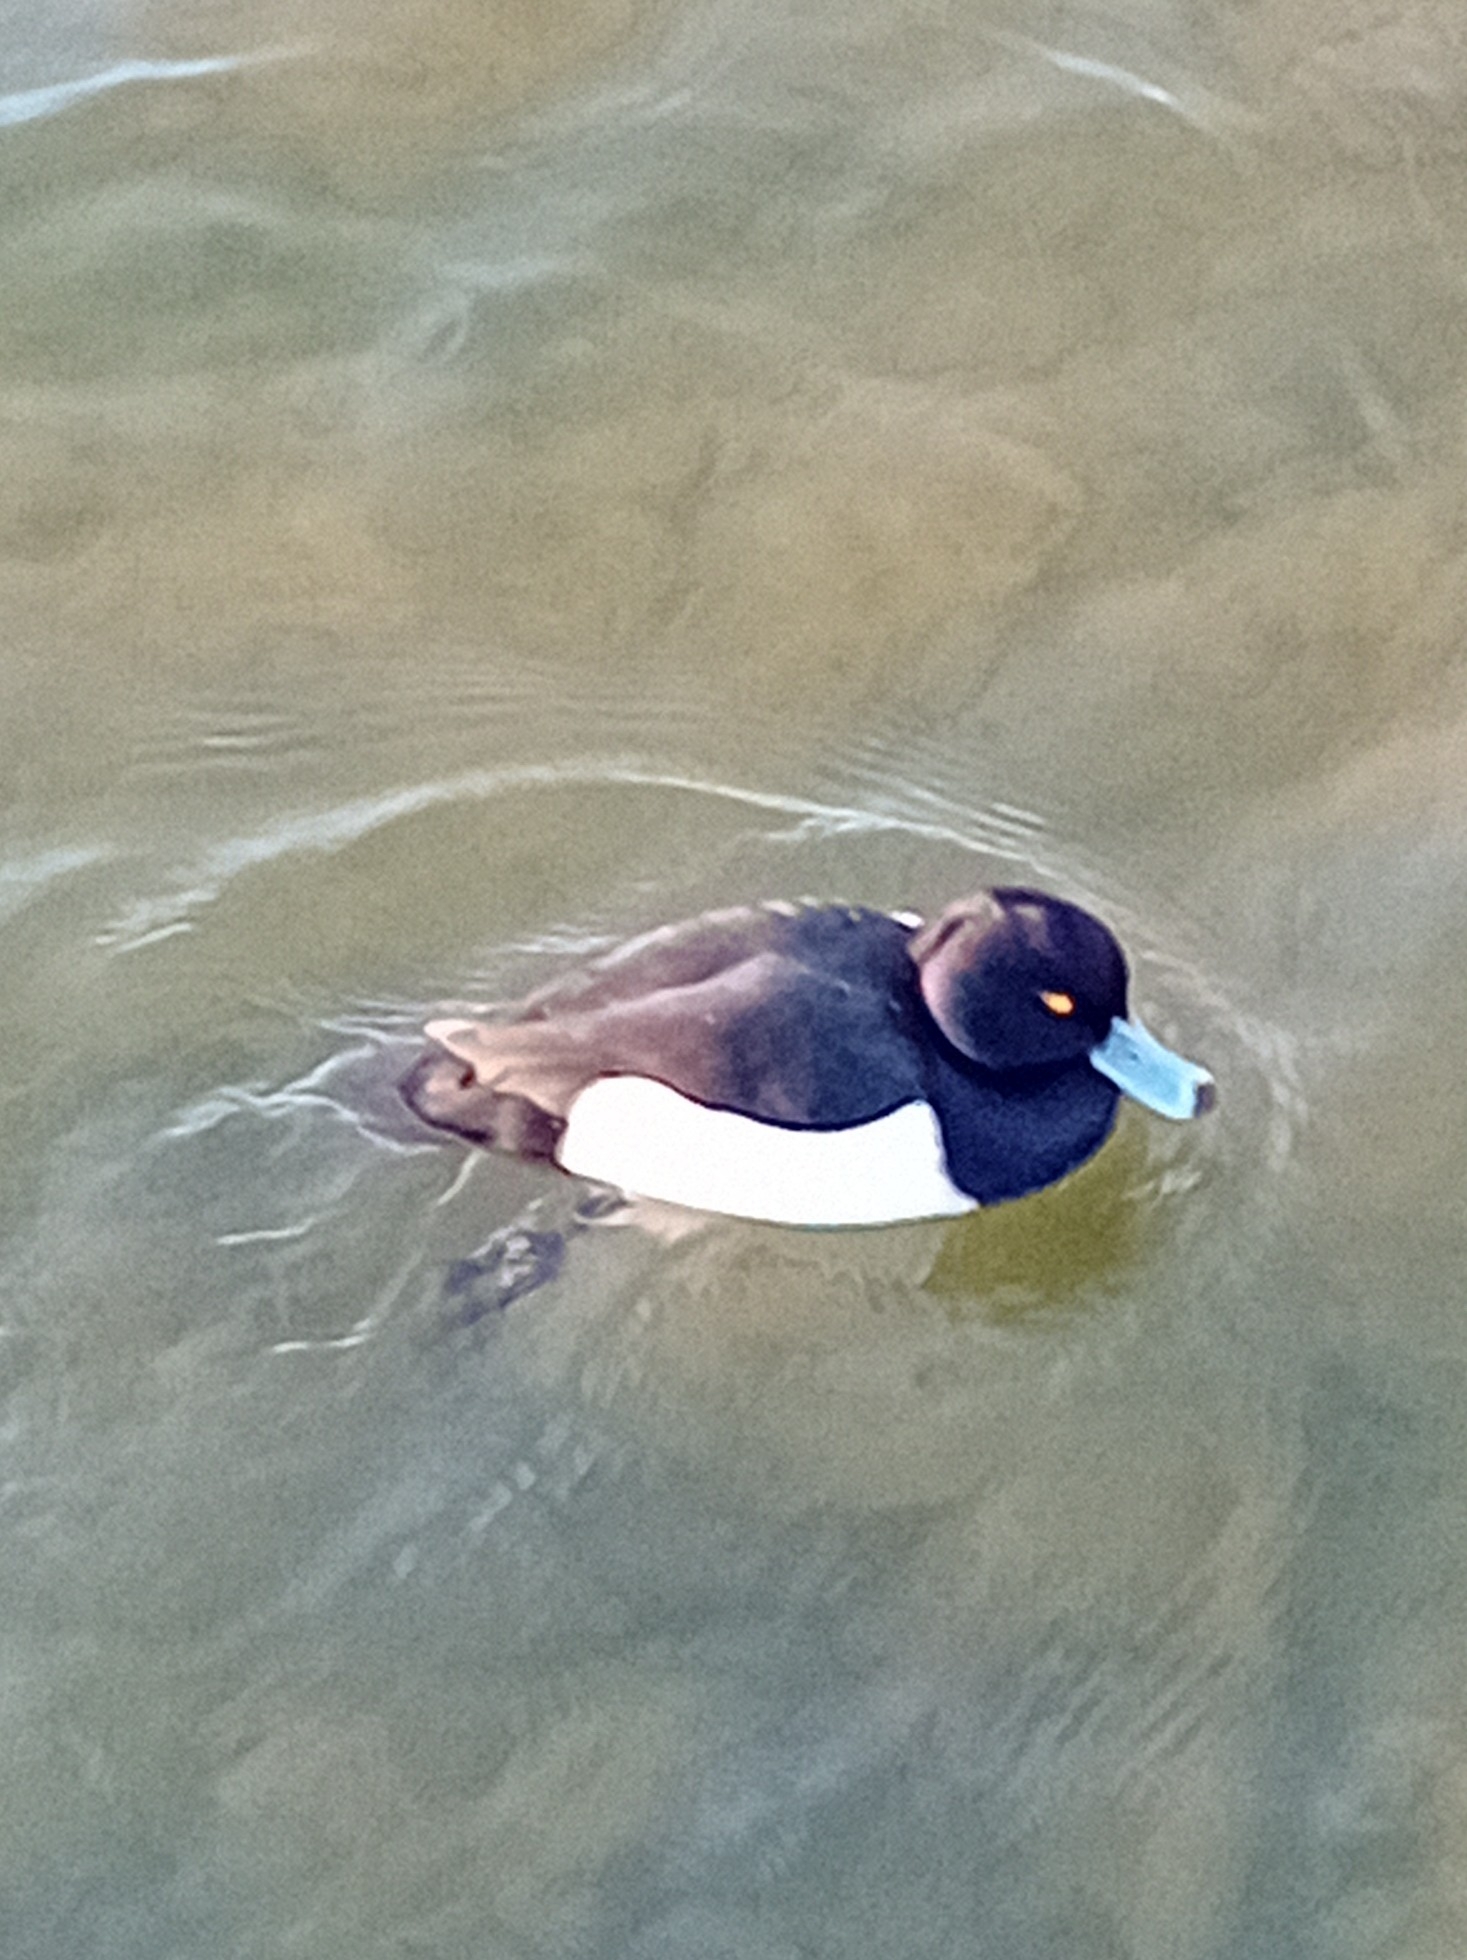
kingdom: Animalia
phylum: Chordata
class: Aves
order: Anseriformes
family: Anatidae
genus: Aythya
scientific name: Aythya fuligula
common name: Tufted duck
